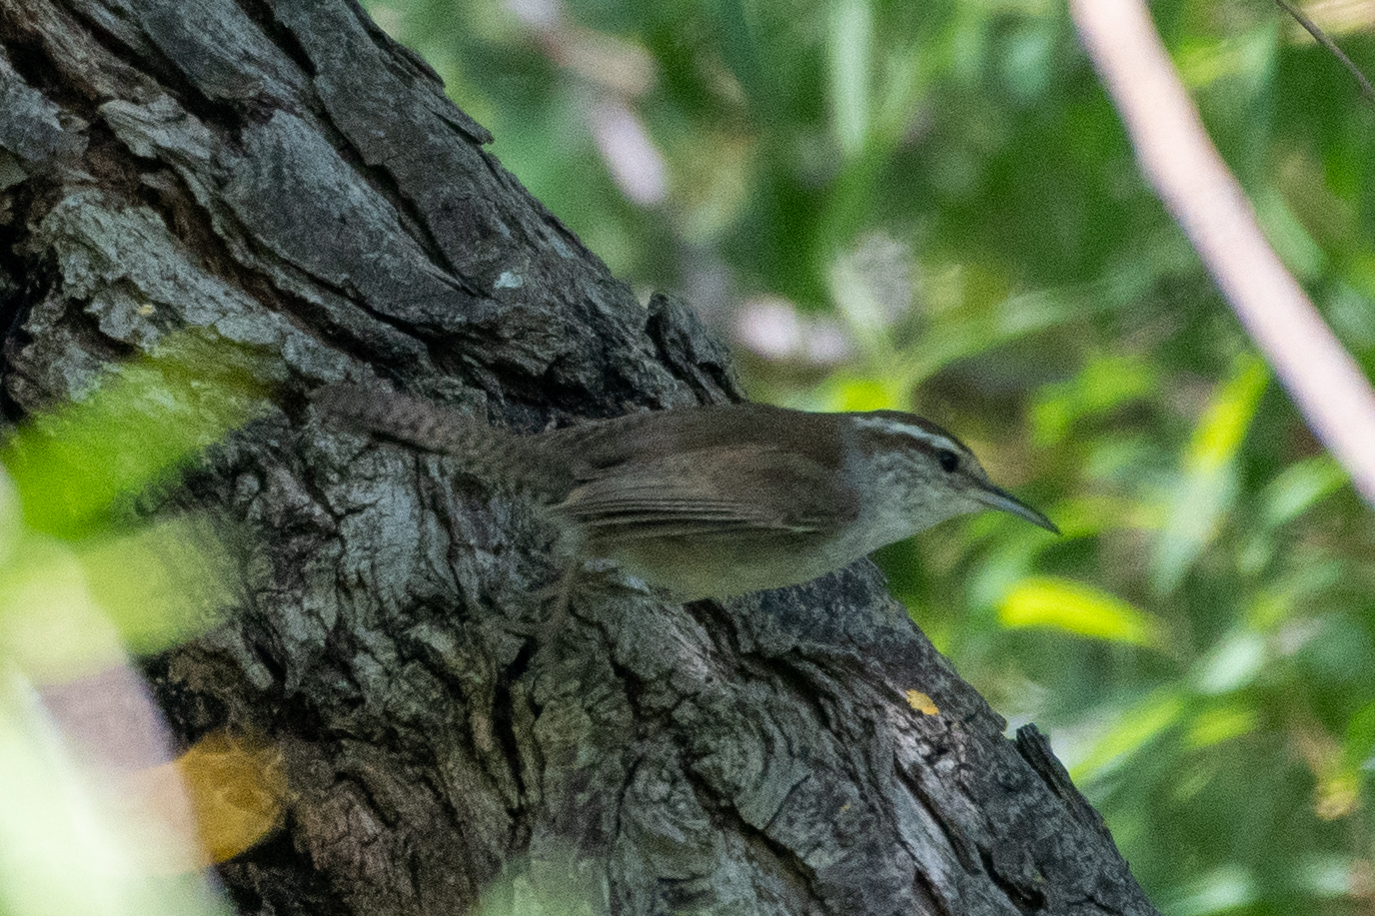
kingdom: Animalia
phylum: Chordata
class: Aves
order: Passeriformes
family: Troglodytidae
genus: Thryomanes
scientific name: Thryomanes bewickii
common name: Bewick's wren
